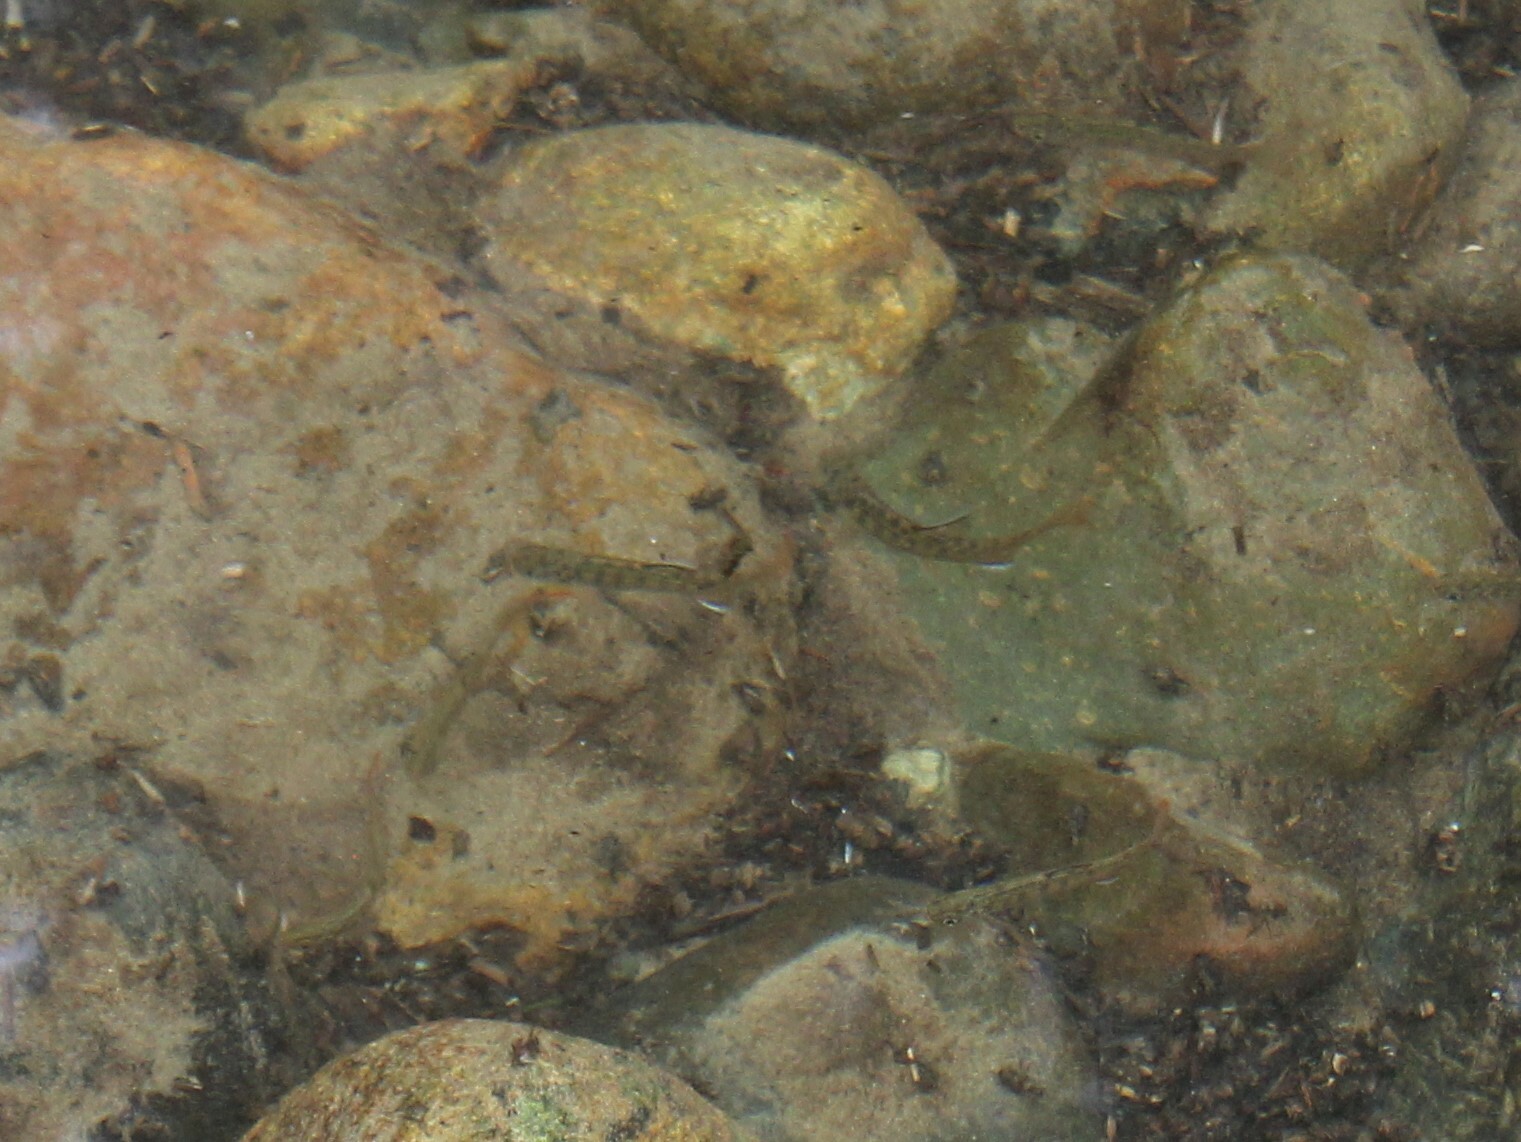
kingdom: Animalia
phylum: Chordata
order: Salmoniformes
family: Salmonidae
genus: Oncorhynchus
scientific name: Oncorhynchus kisutch
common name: Coho salmon
